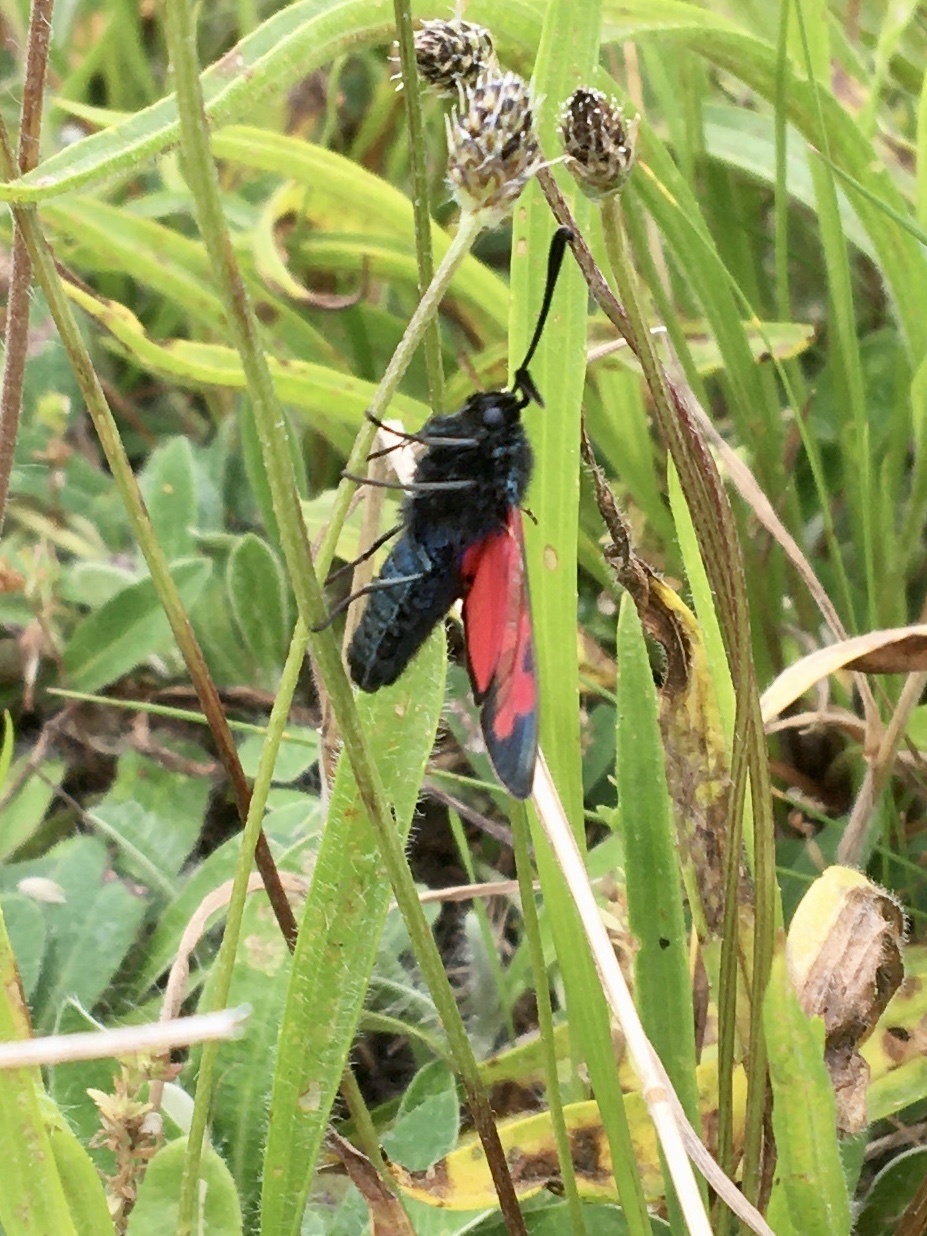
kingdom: Animalia
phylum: Arthropoda
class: Insecta
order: Lepidoptera
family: Zygaenidae
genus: Zygaena
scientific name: Zygaena filipendulae
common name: Six-spot burnet
